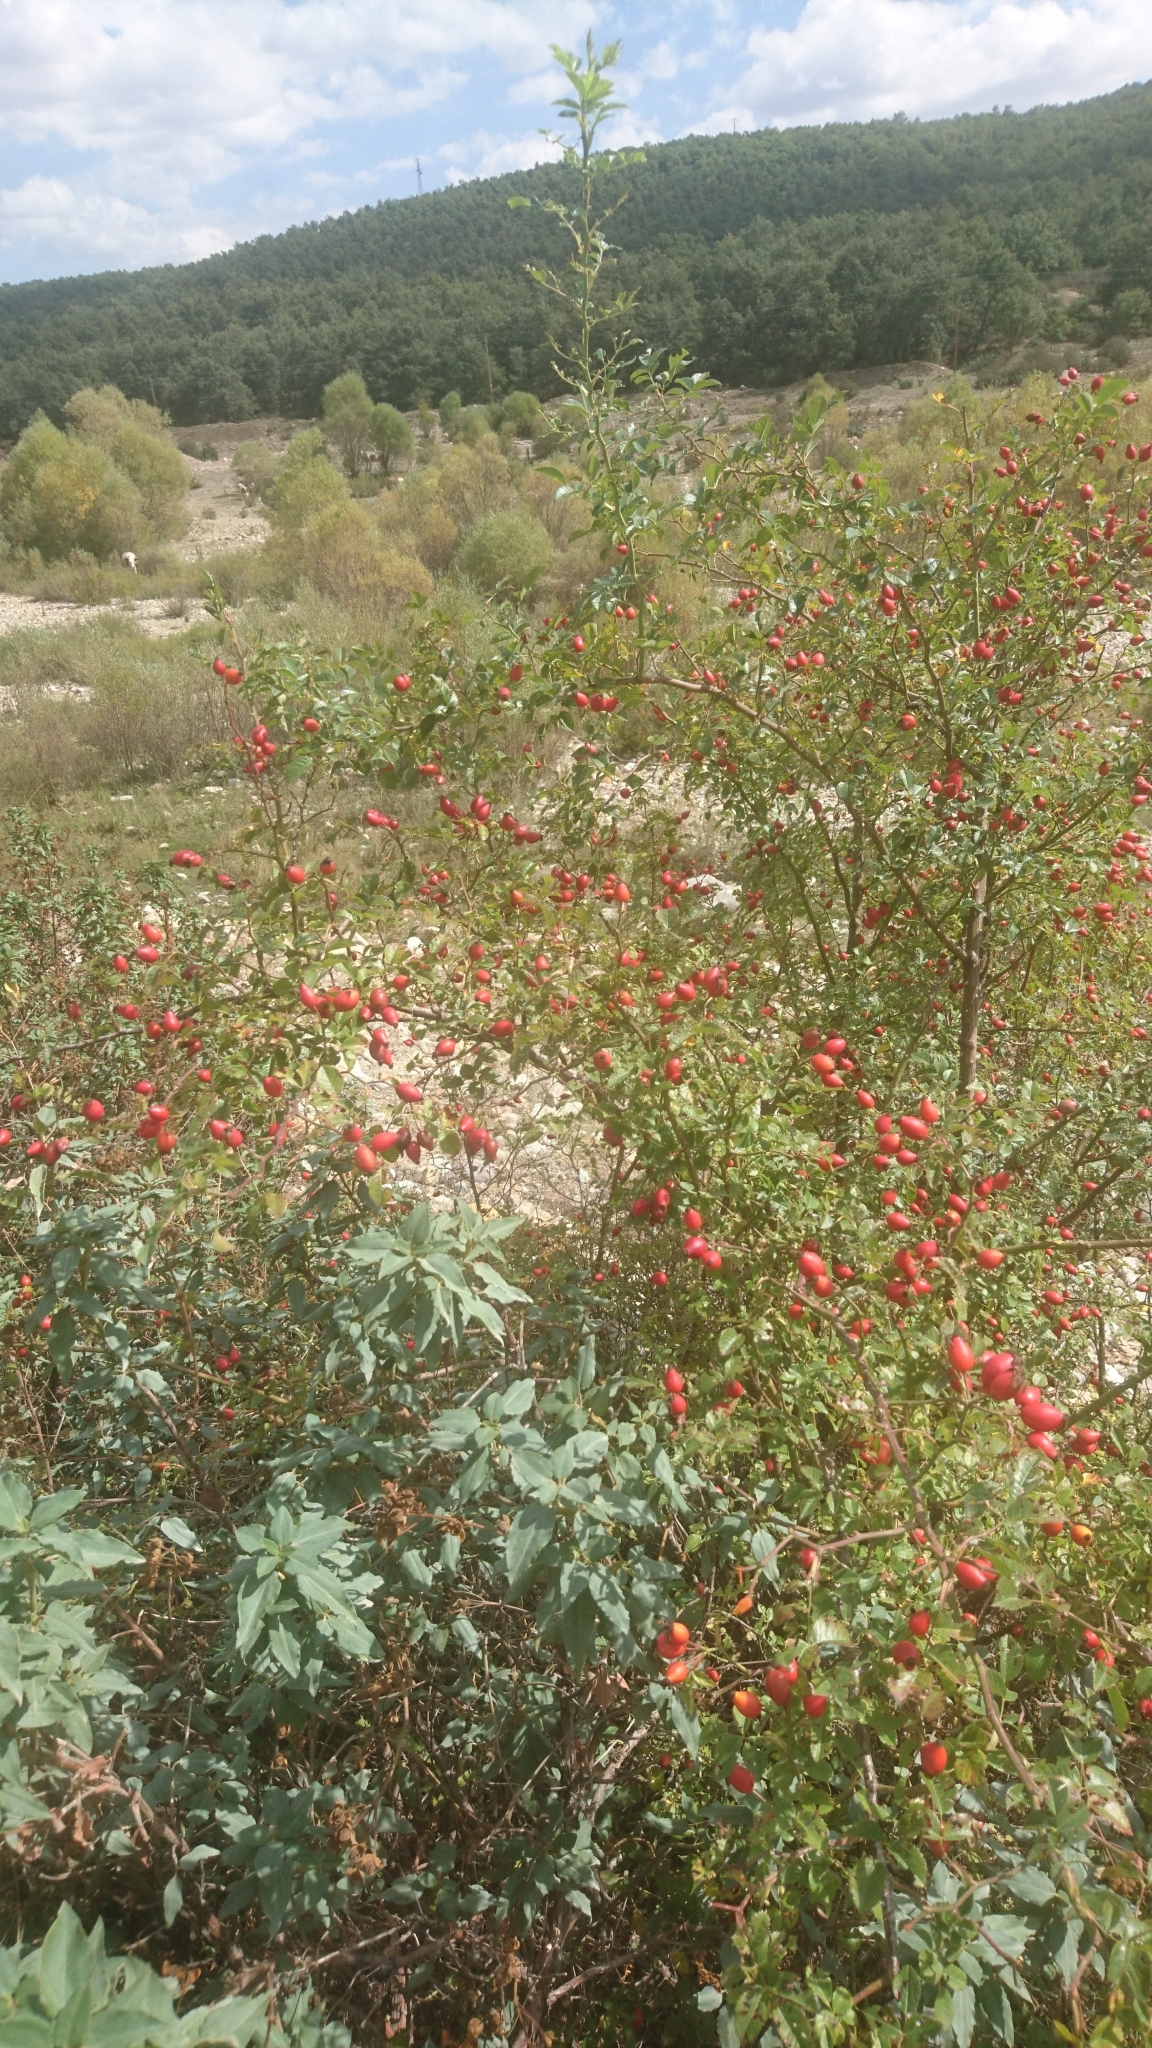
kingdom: Plantae
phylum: Tracheophyta
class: Magnoliopsida
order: Rosales
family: Rosaceae
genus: Rosa
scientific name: Rosa canina
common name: Dog rose
